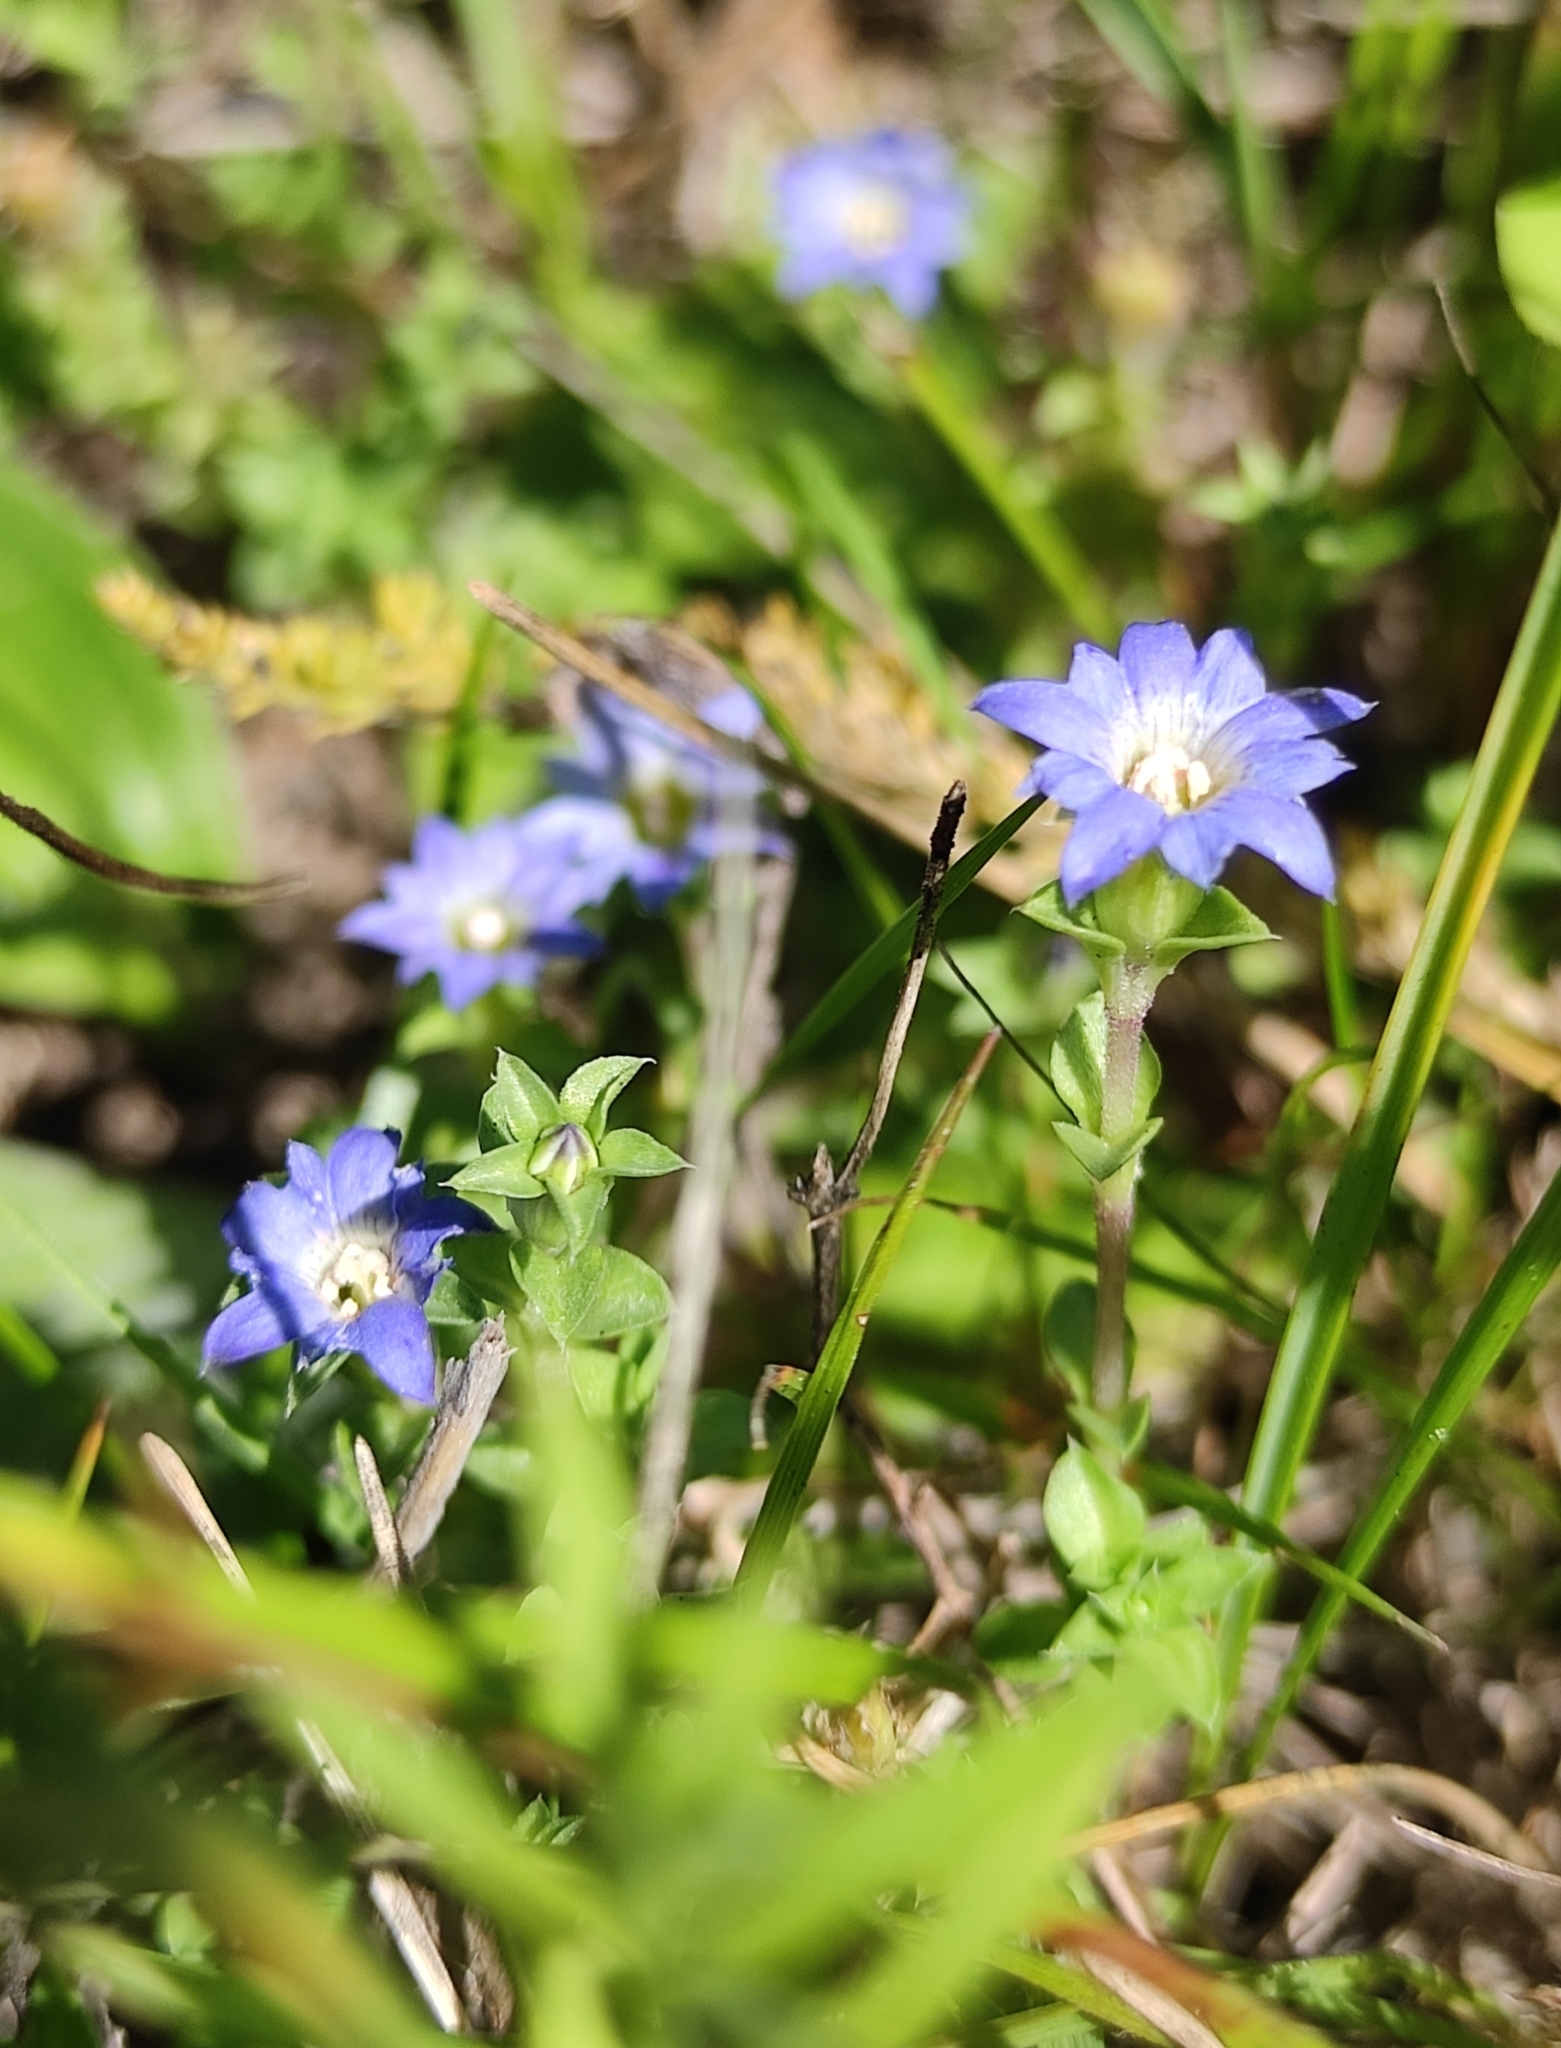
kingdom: Plantae
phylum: Tracheophyta
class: Magnoliopsida
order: Gentianales
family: Gentianaceae
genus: Gentiana
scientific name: Gentiana squarrosa
